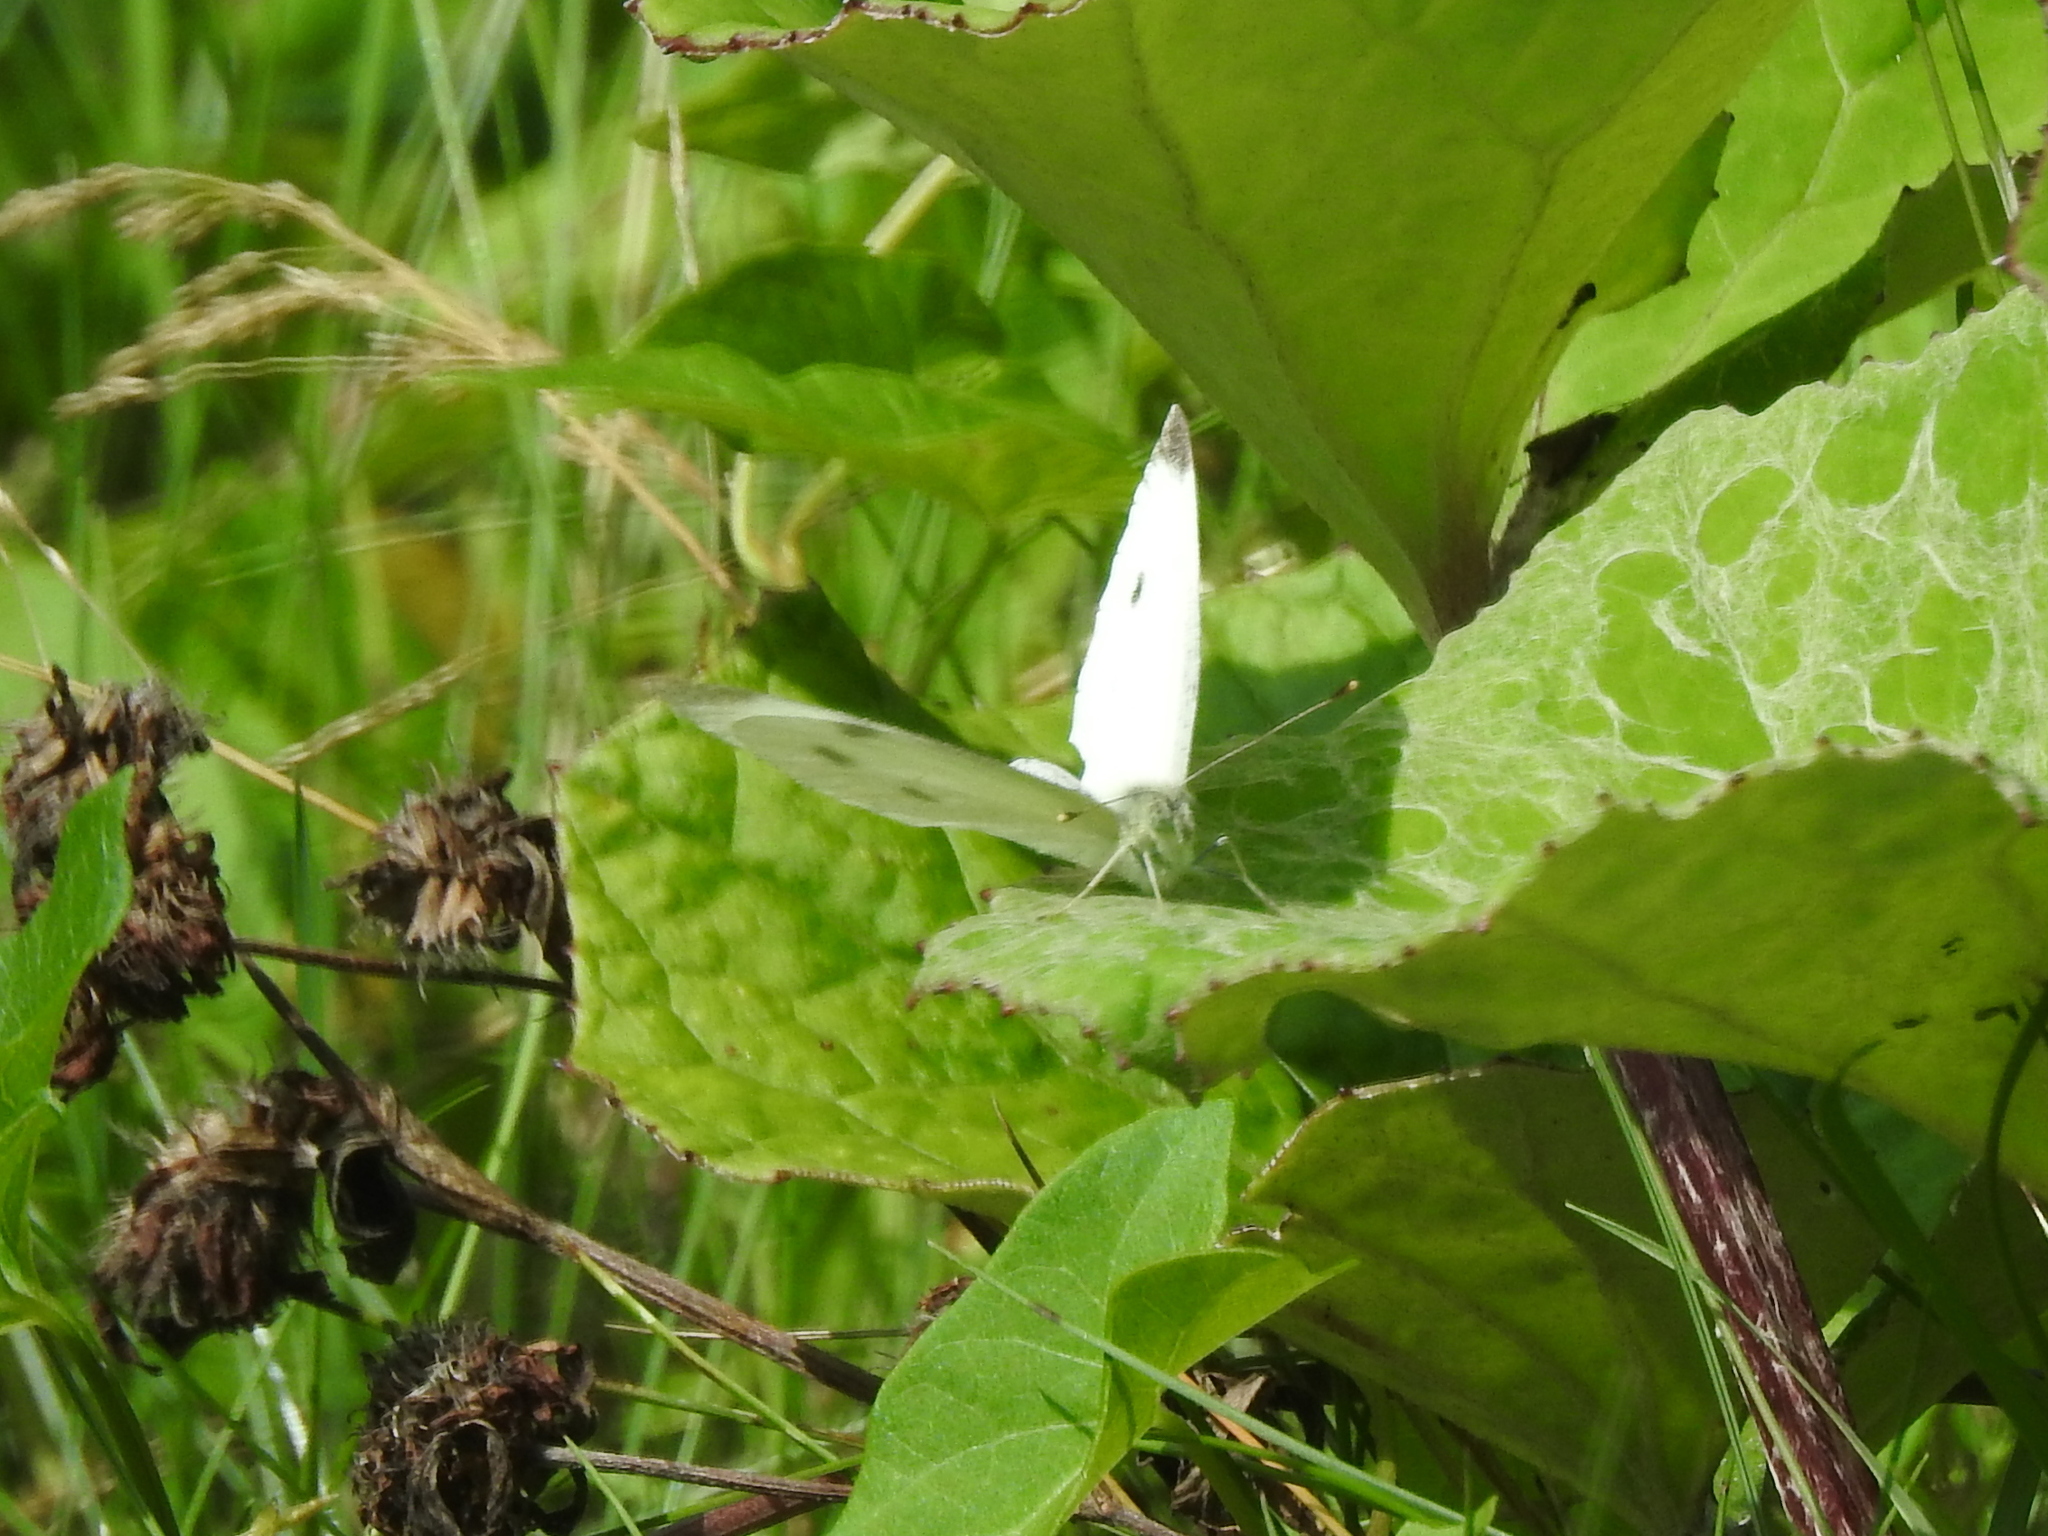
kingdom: Animalia
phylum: Arthropoda
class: Insecta
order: Lepidoptera
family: Pieridae
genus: Pieris
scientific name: Pieris rapae
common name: Small white
